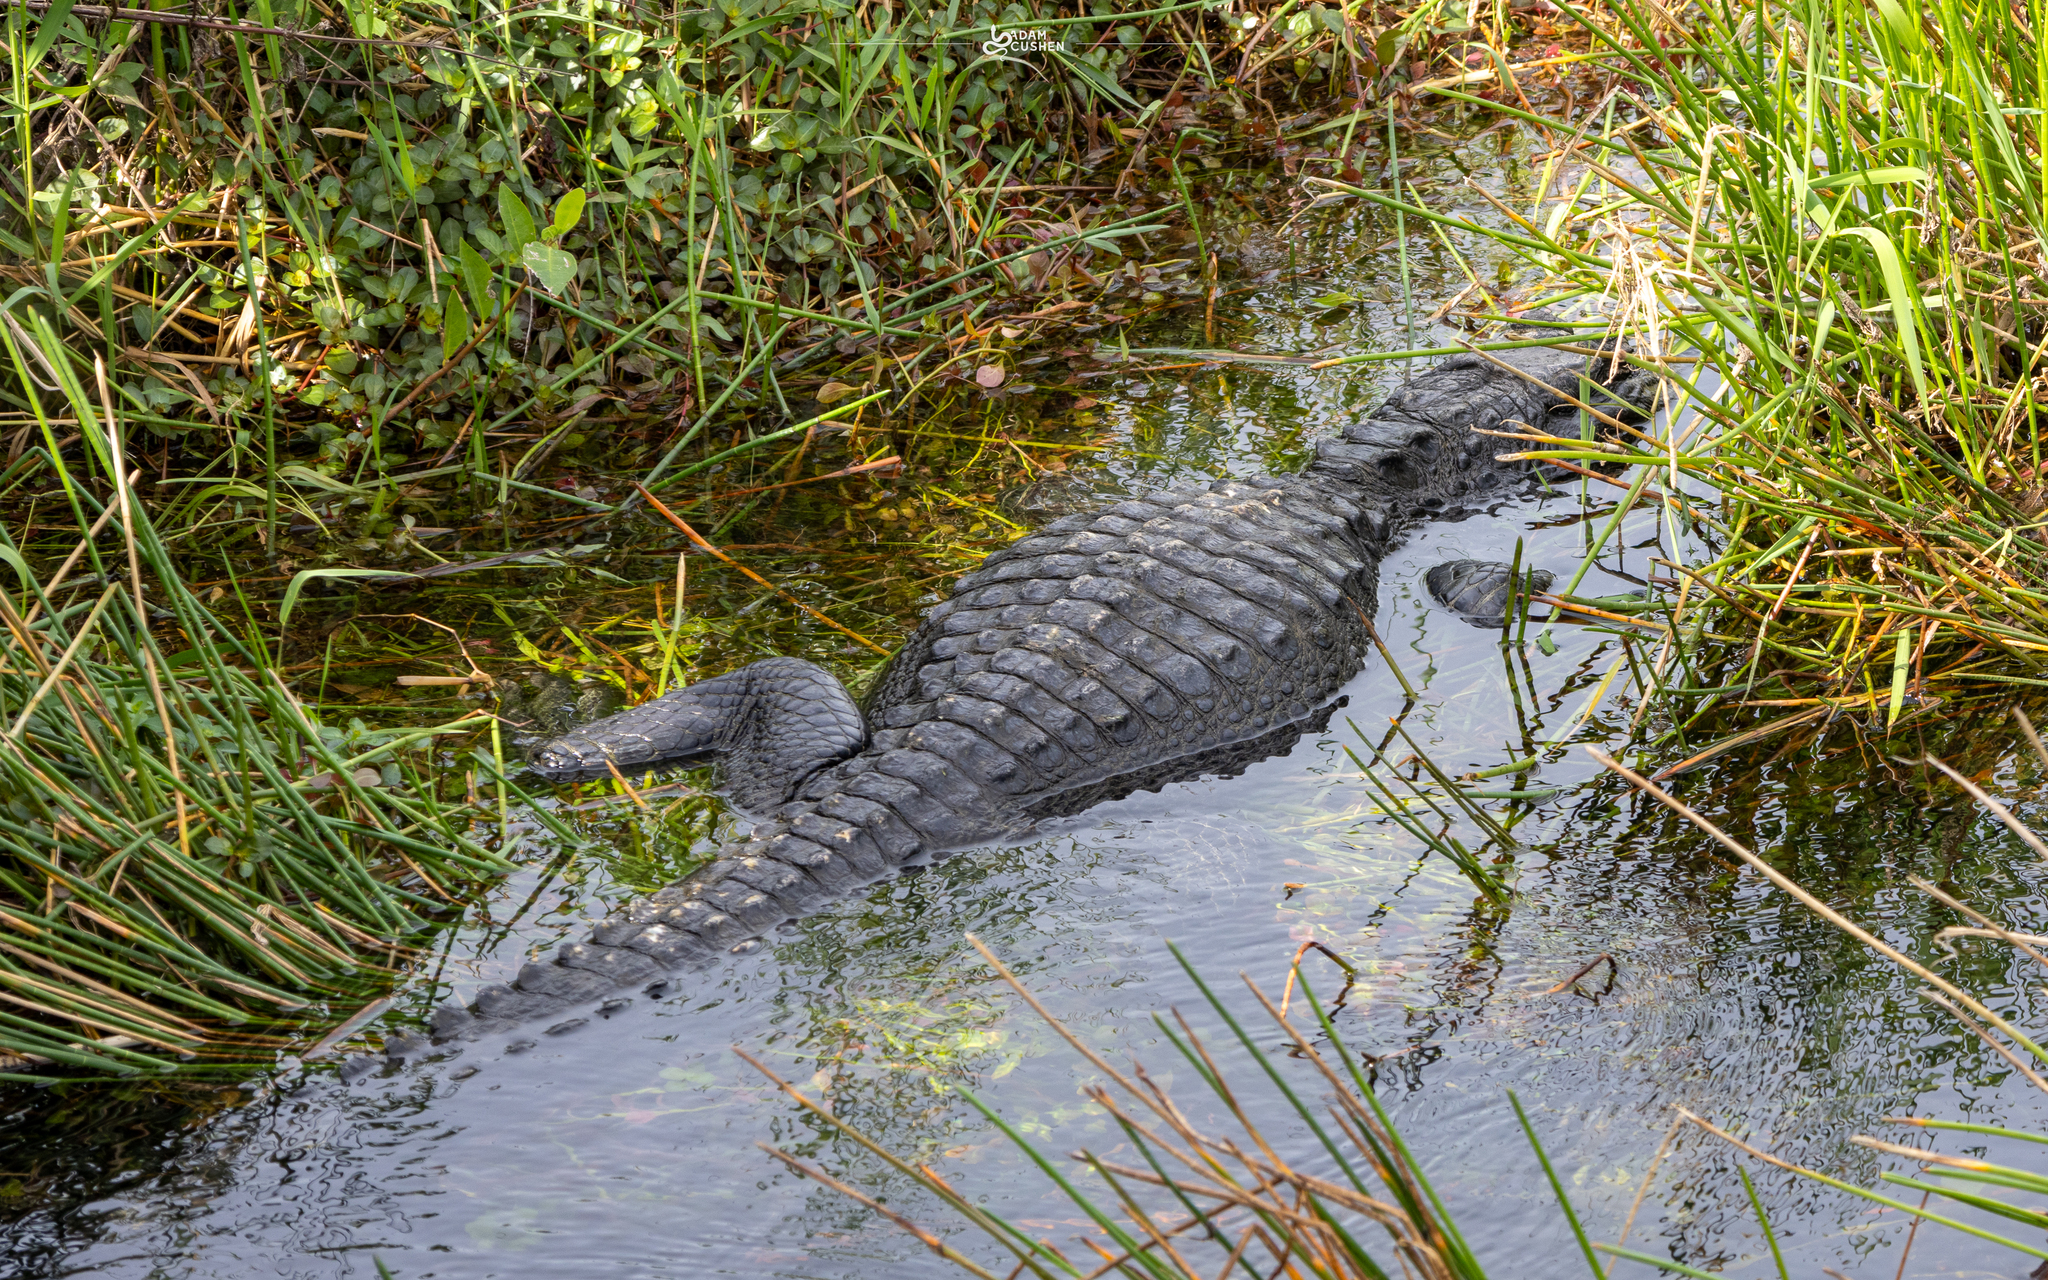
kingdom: Animalia
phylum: Chordata
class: Crocodylia
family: Alligatoridae
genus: Alligator
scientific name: Alligator mississippiensis
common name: American alligator
